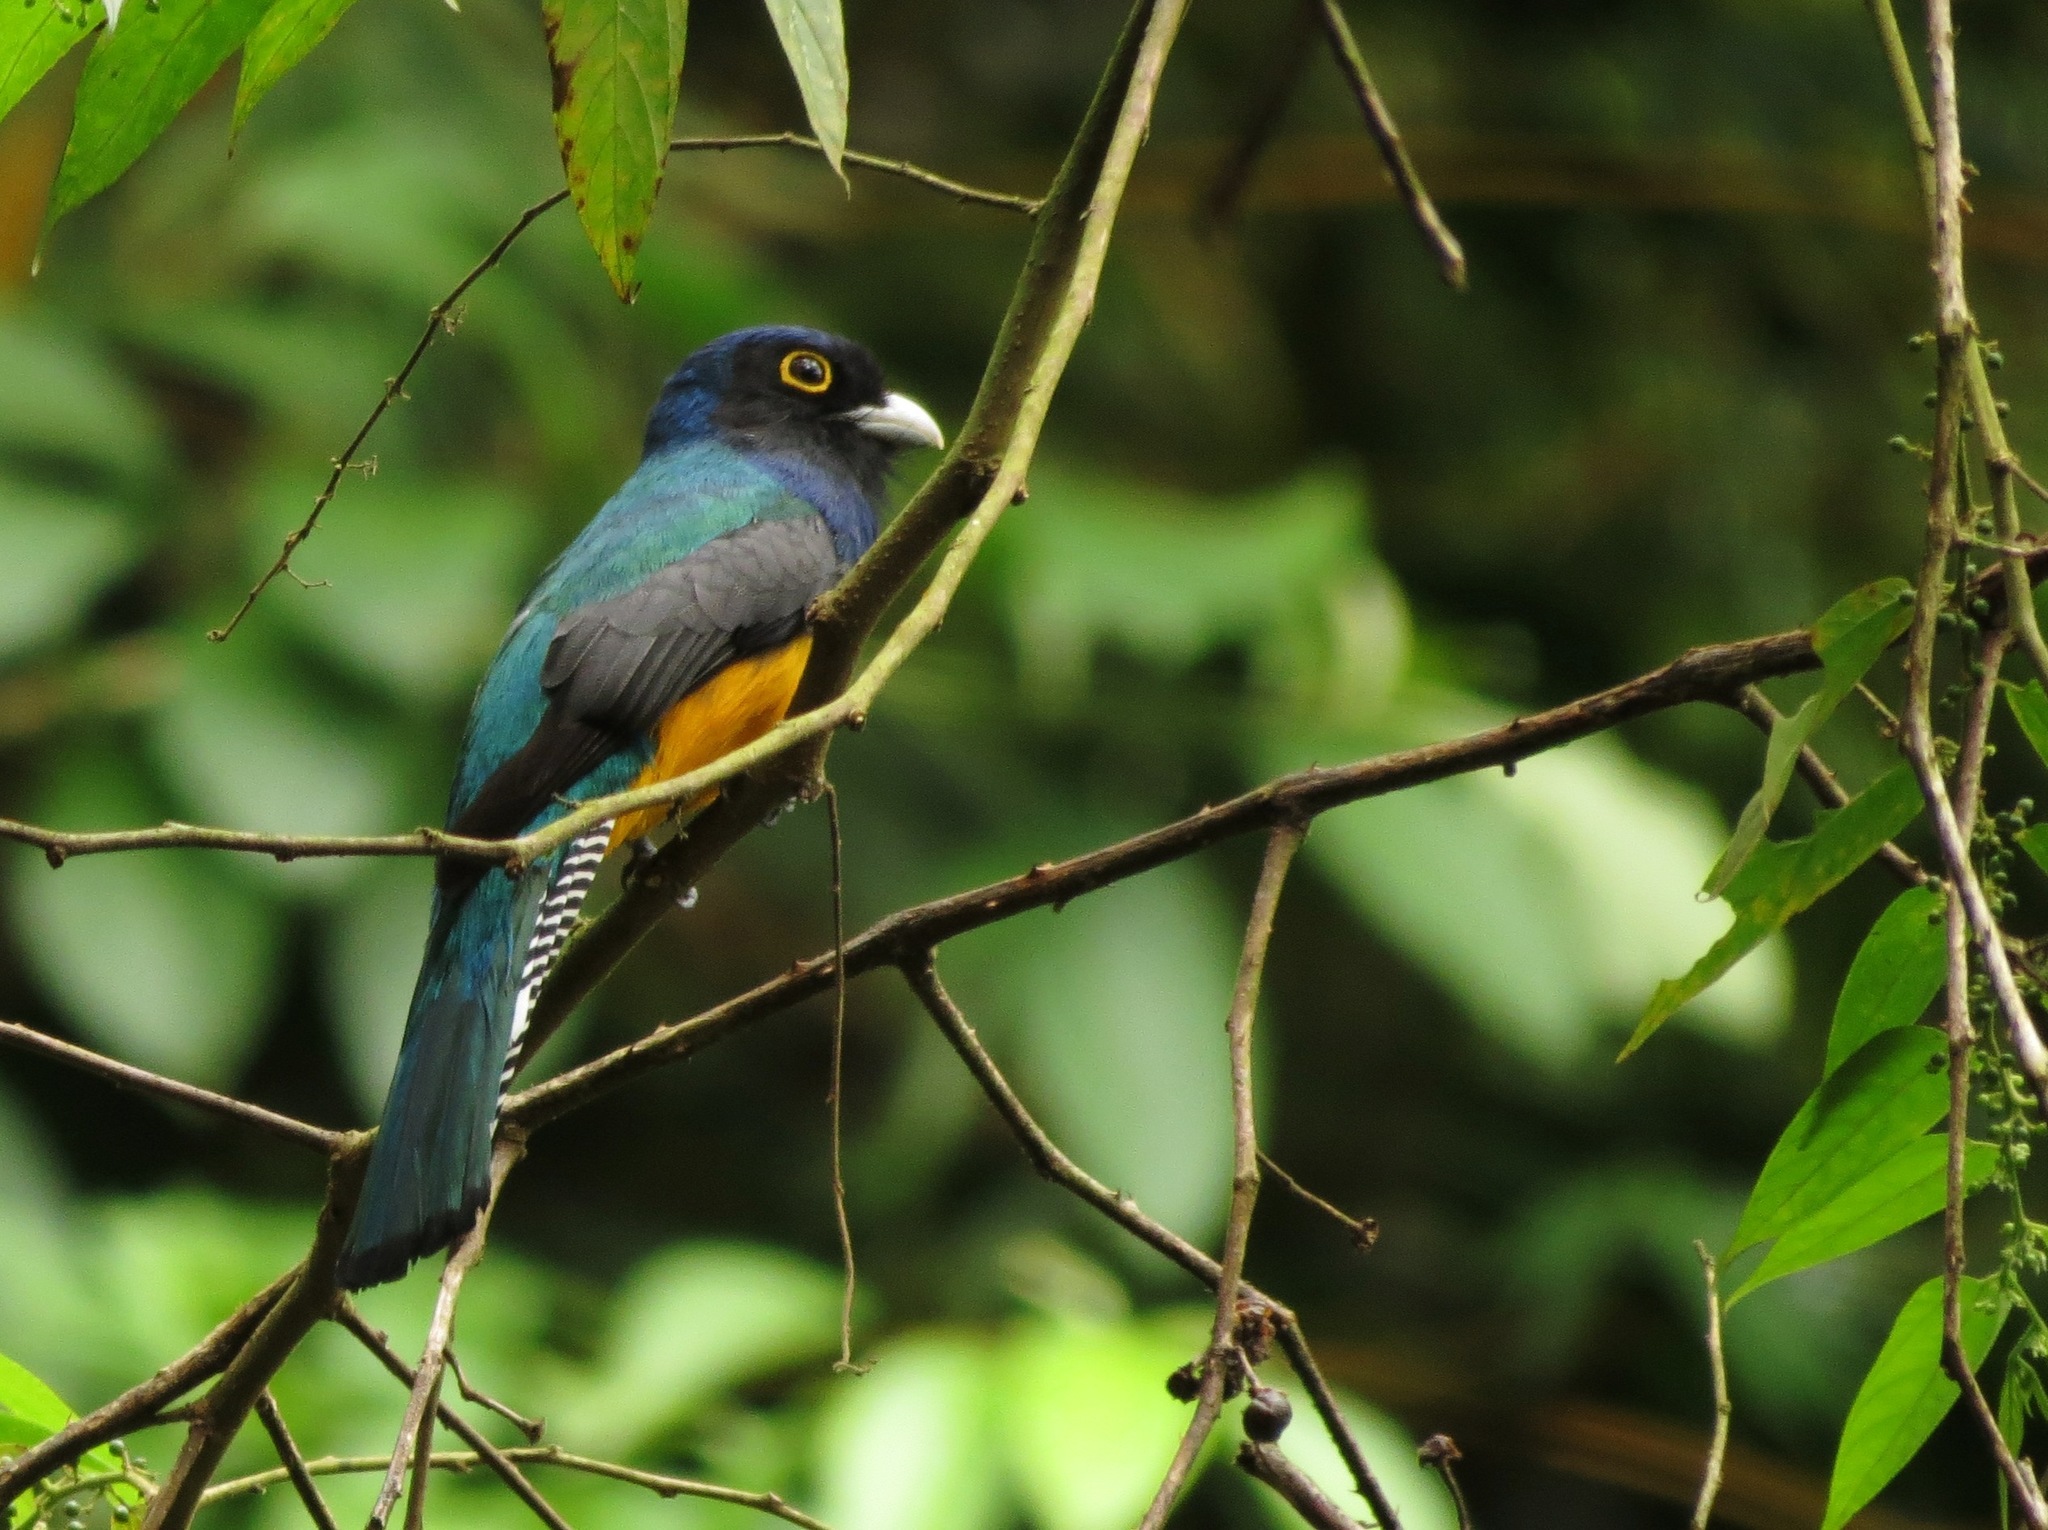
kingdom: Animalia
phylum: Chordata
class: Aves
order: Trogoniformes
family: Trogonidae
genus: Trogon
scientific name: Trogon violaceus
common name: Guianan trogon
